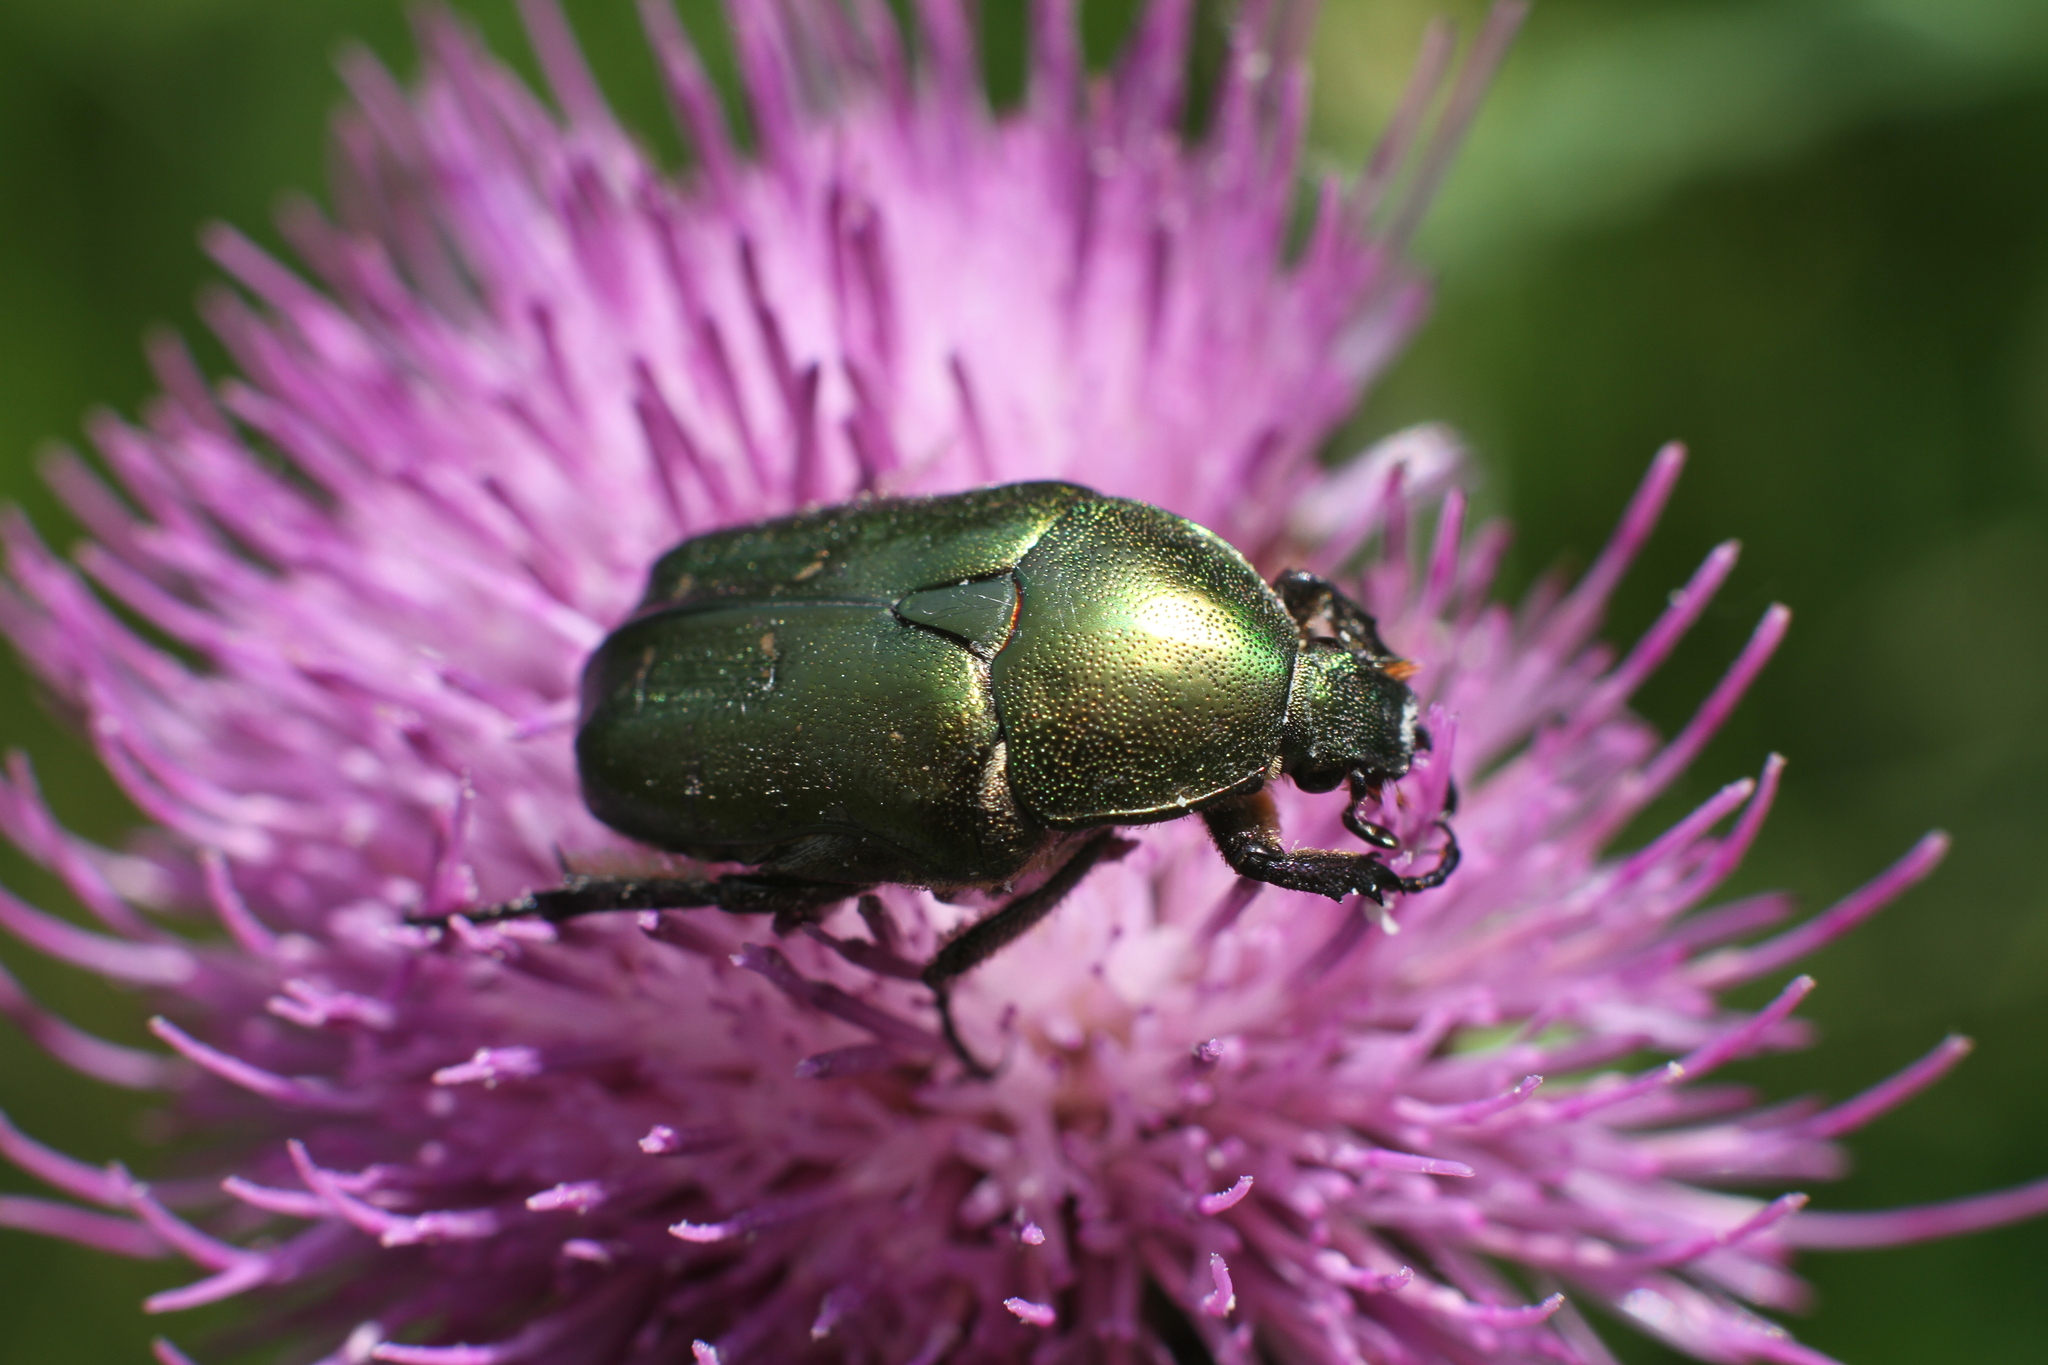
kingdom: Animalia
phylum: Arthropoda
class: Insecta
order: Coleoptera
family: Scarabaeidae
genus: Protaetia
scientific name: Protaetia cuprea
